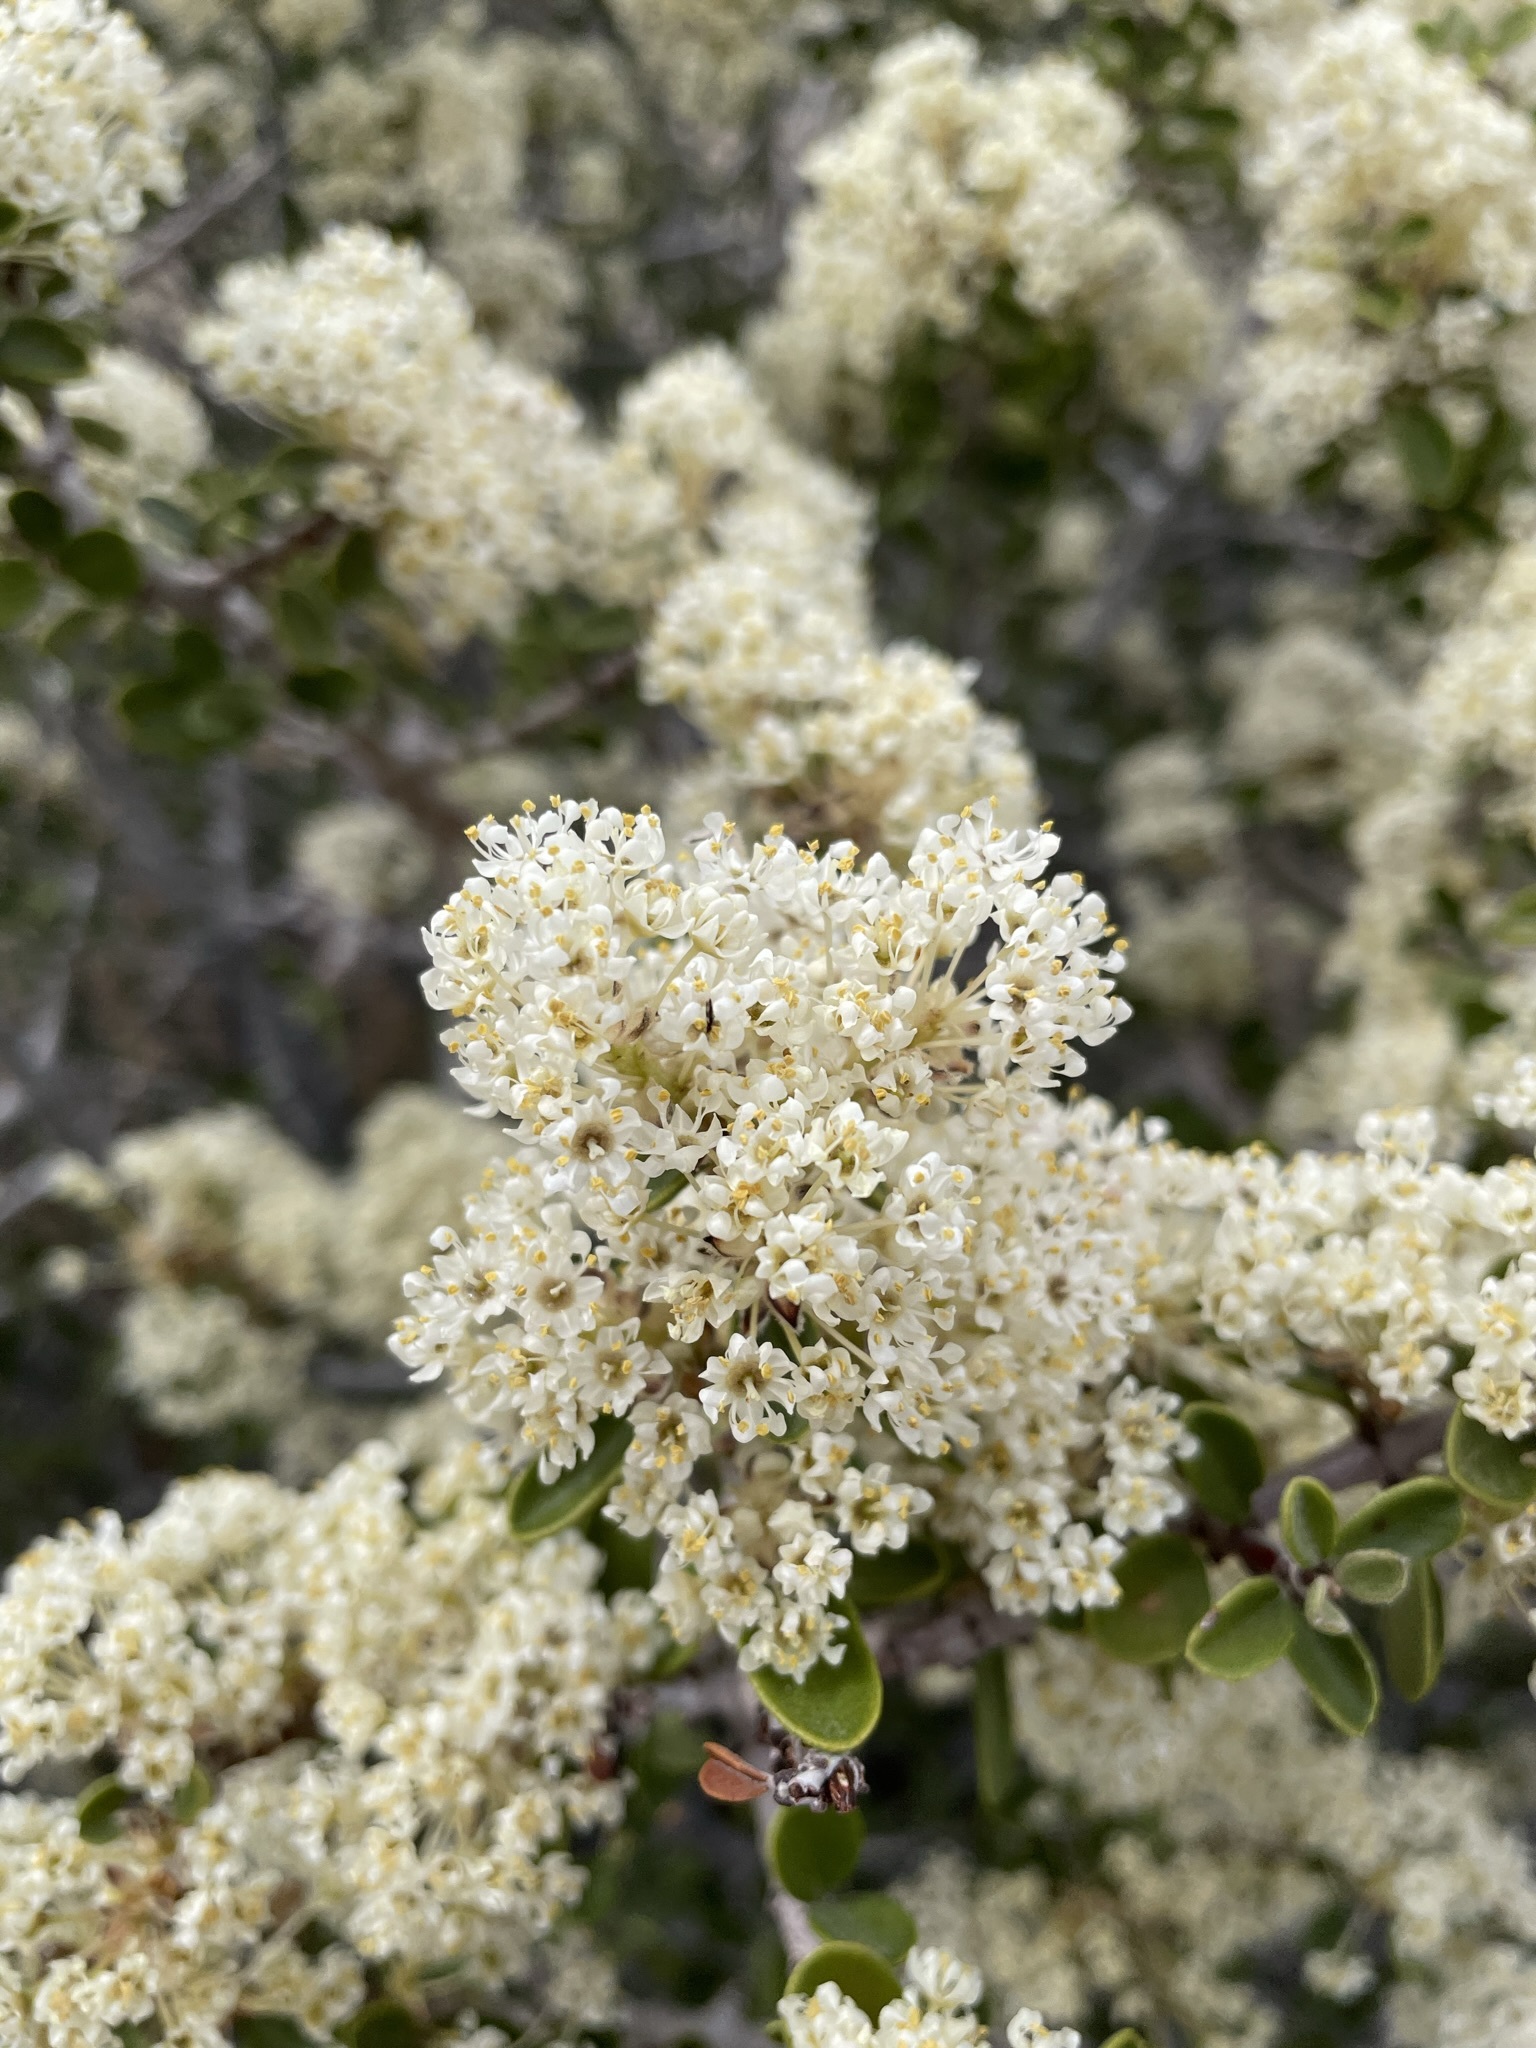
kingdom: Plantae
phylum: Tracheophyta
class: Magnoliopsida
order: Rosales
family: Rhamnaceae
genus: Ceanothus
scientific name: Ceanothus pauciflorus
